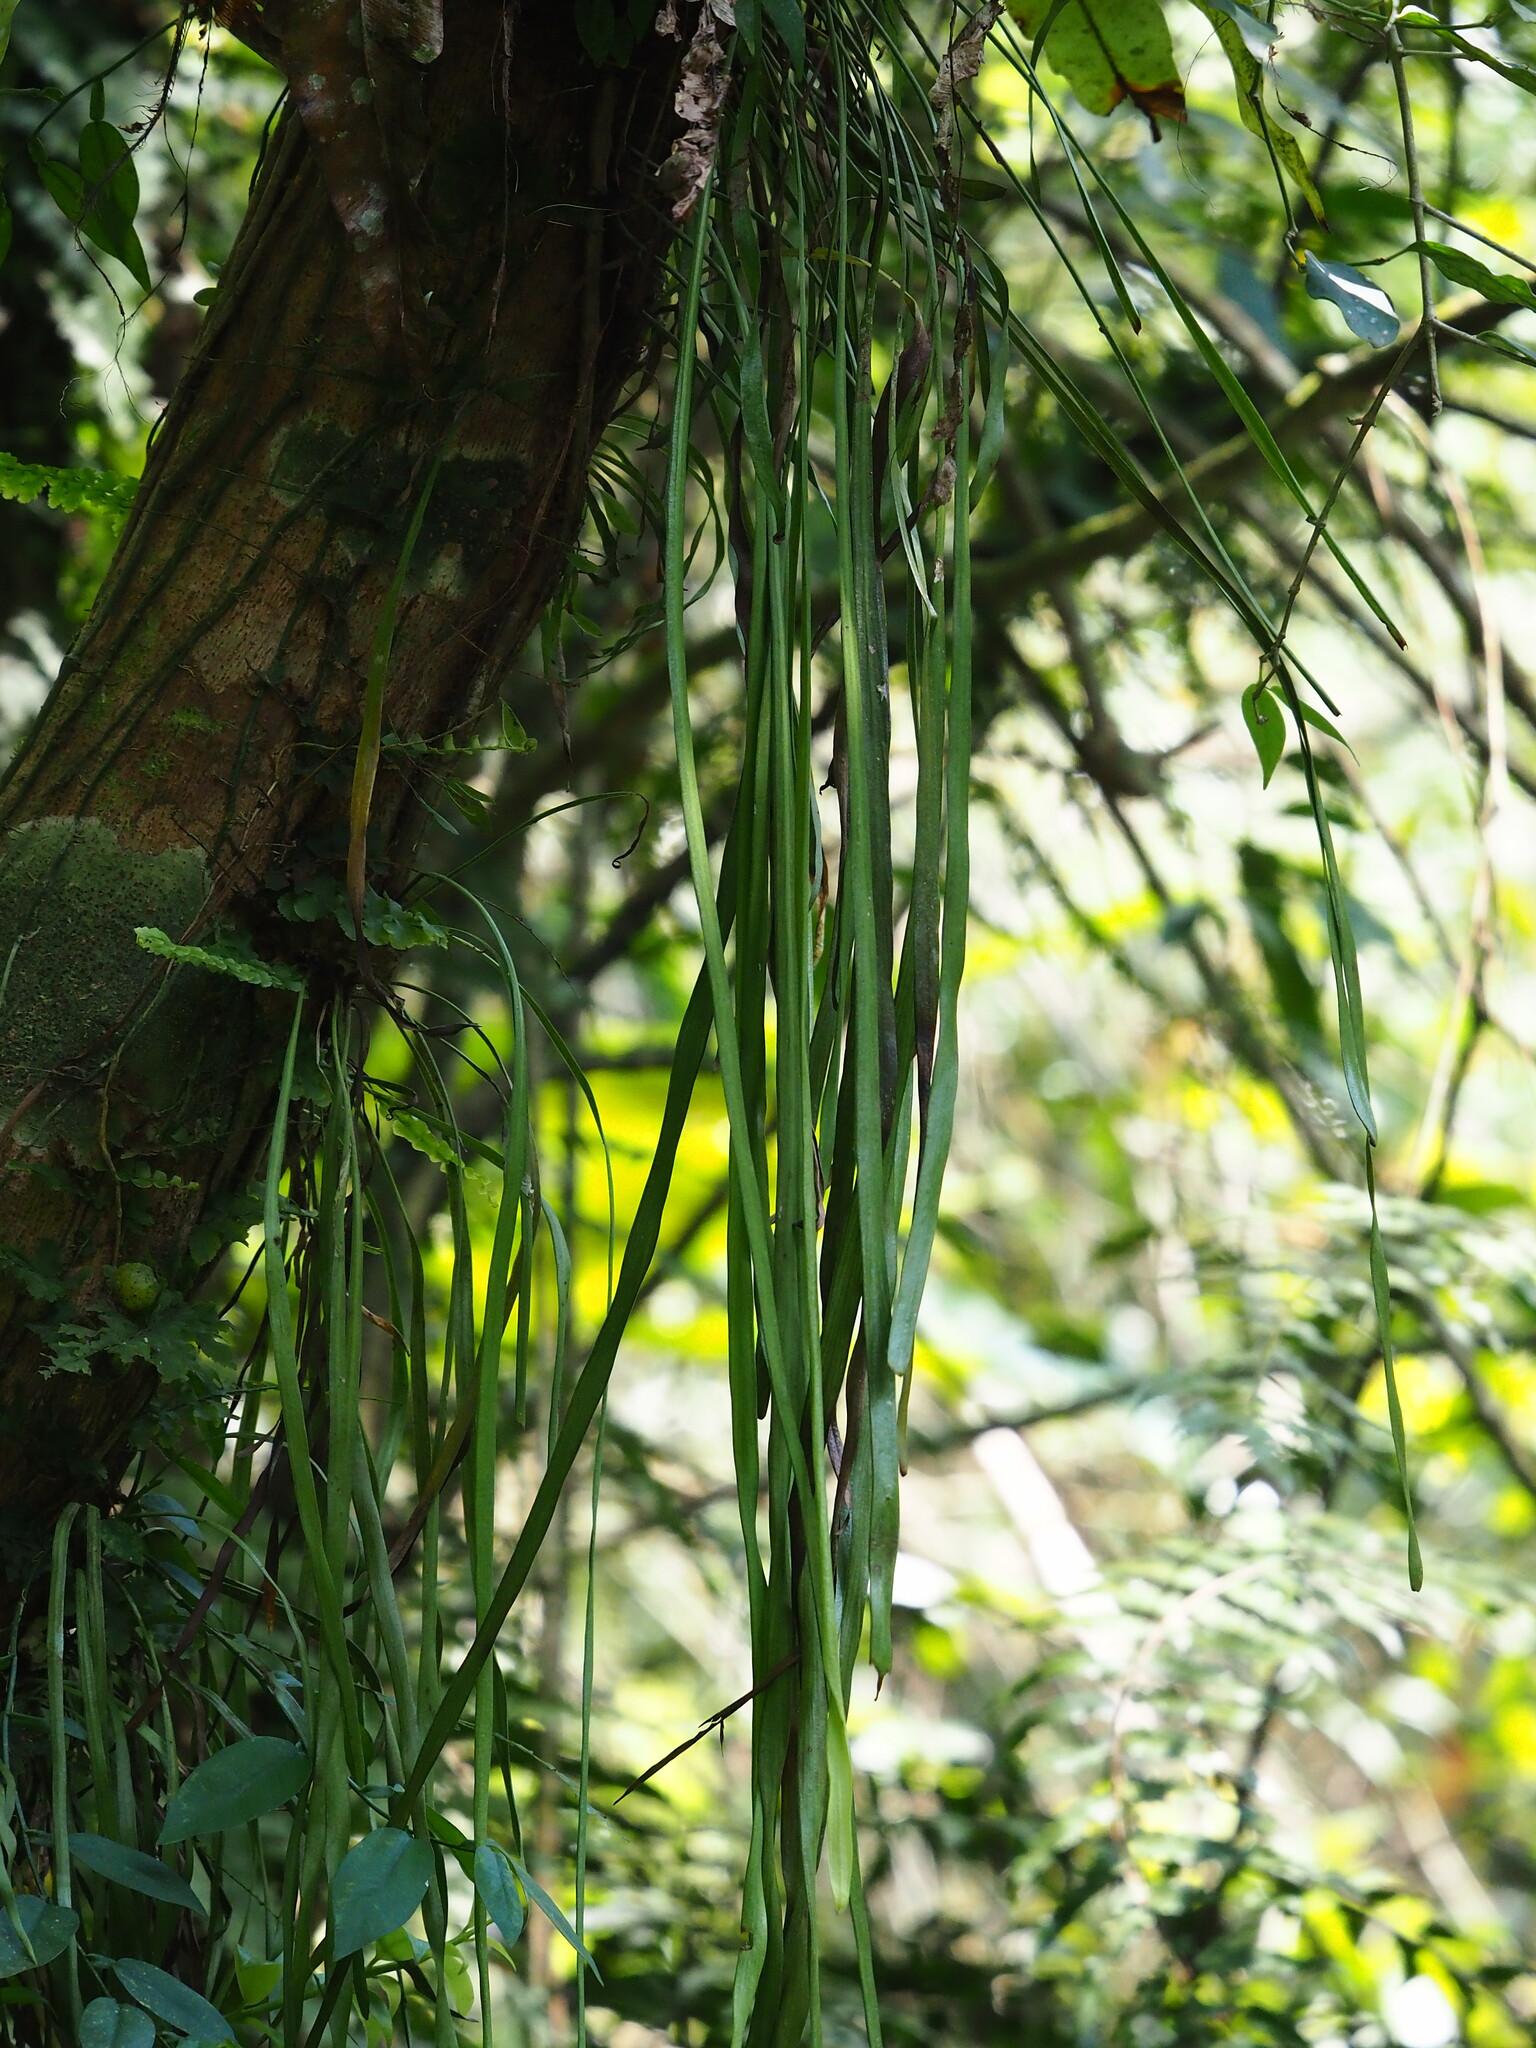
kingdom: Plantae
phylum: Tracheophyta
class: Polypodiopsida
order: Polypodiales
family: Pteridaceae
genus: Haplopteris
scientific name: Haplopteris elongata
